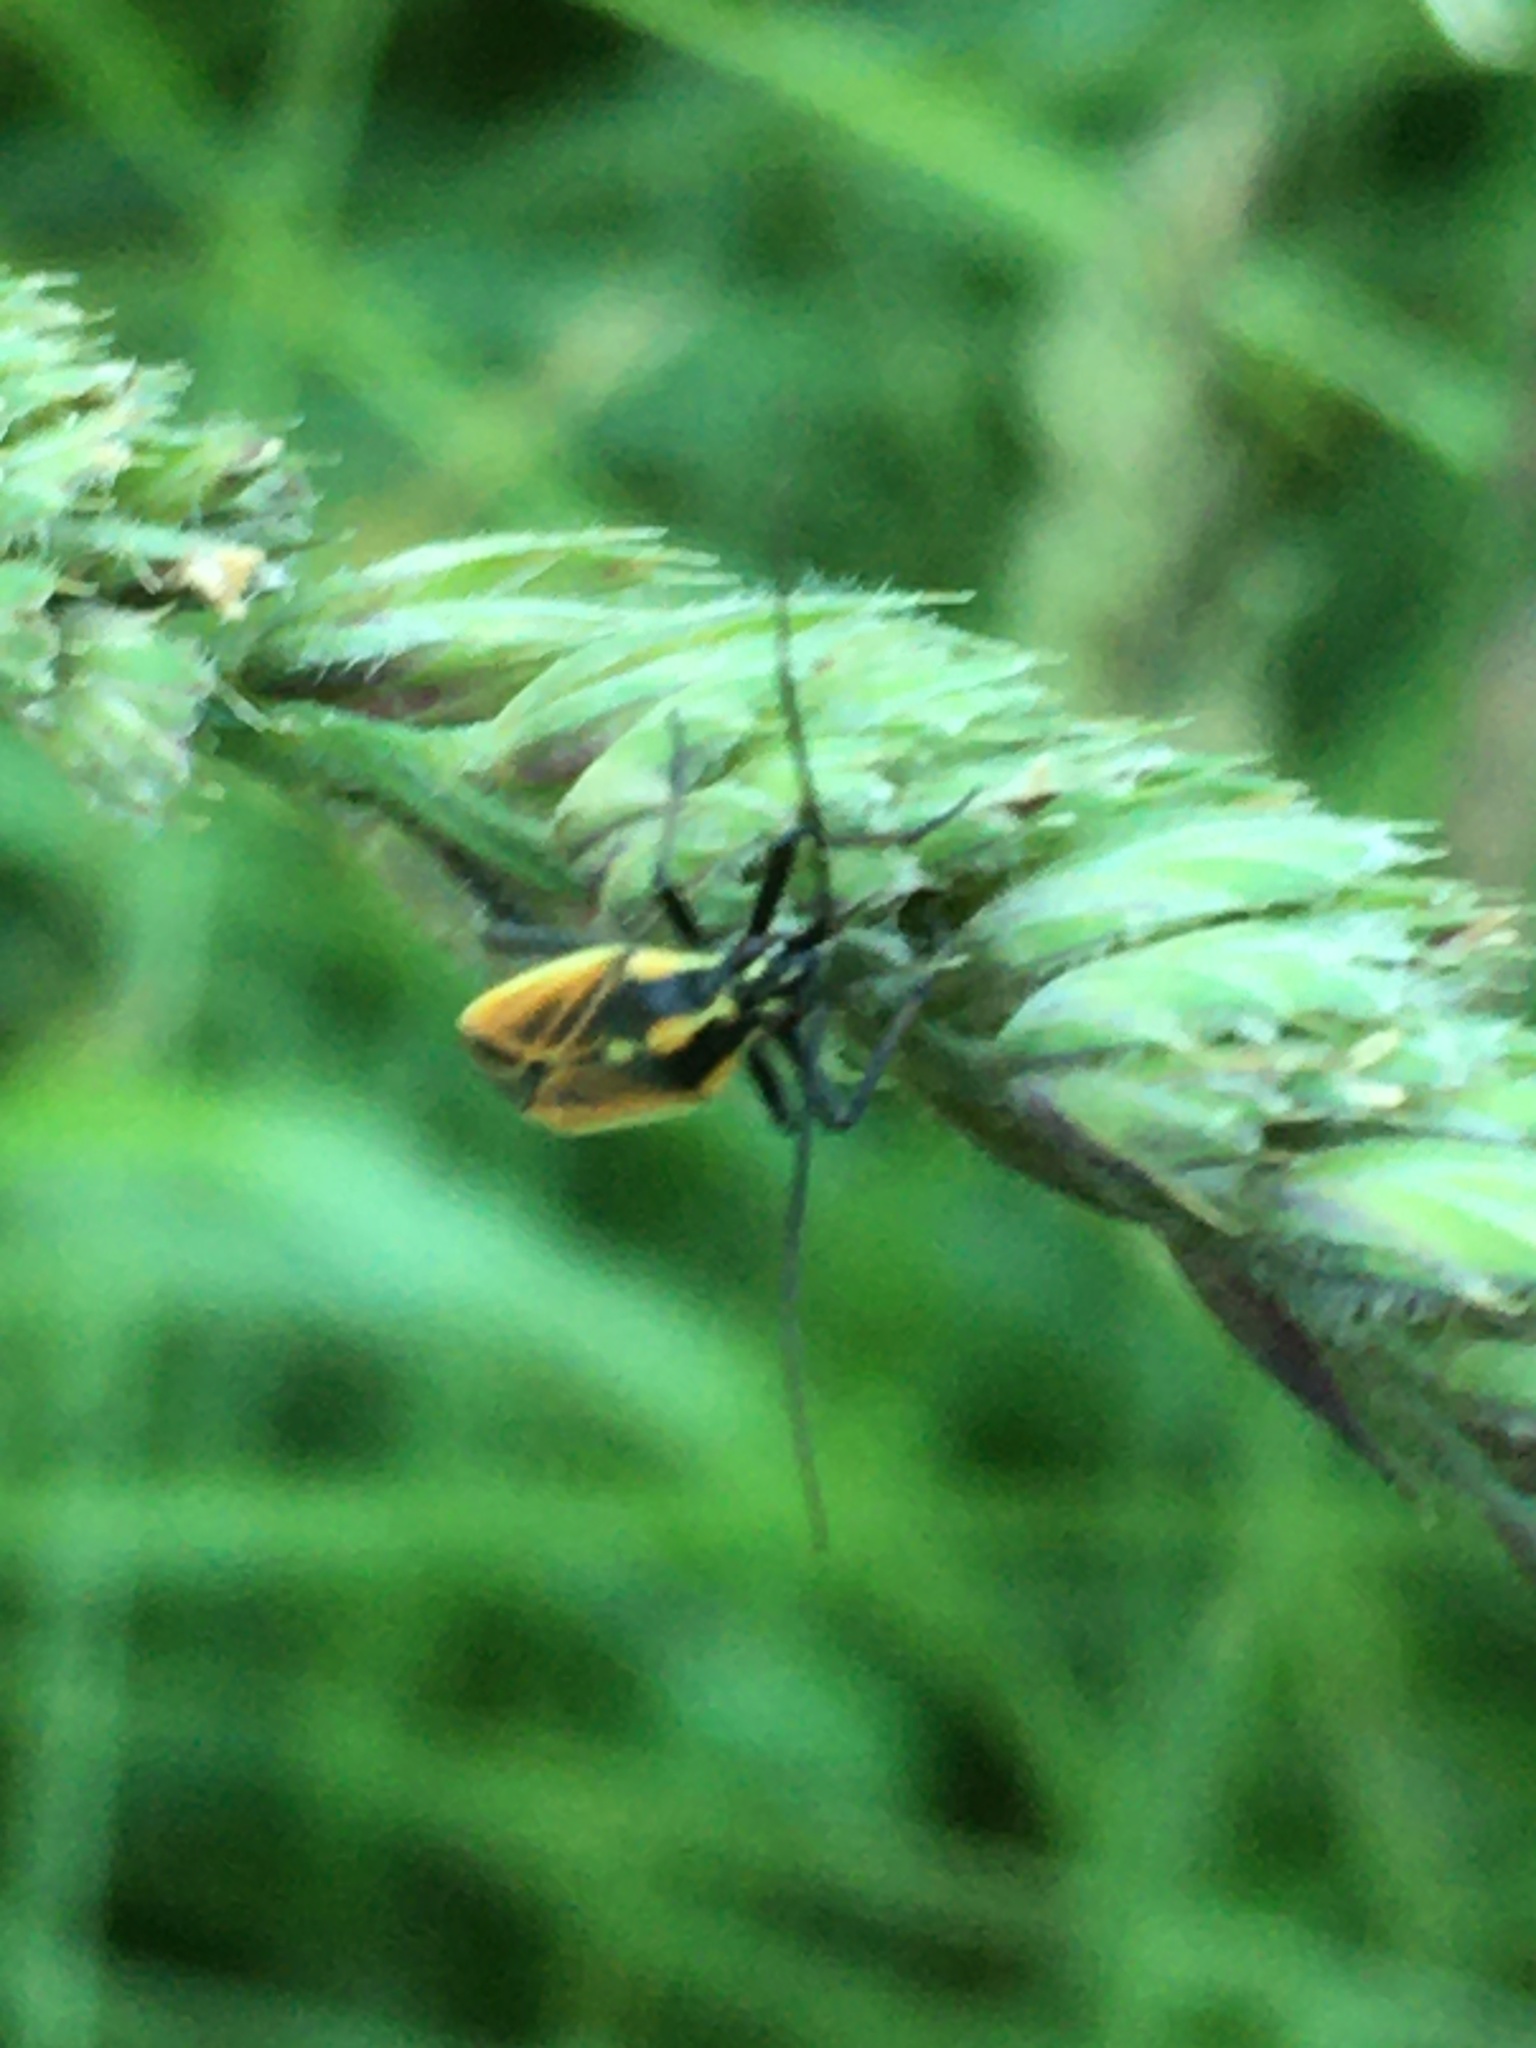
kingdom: Animalia
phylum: Arthropoda
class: Insecta
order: Hemiptera
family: Miridae
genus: Leptopterna
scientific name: Leptopterna dolabrata
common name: Meadow plant bug
